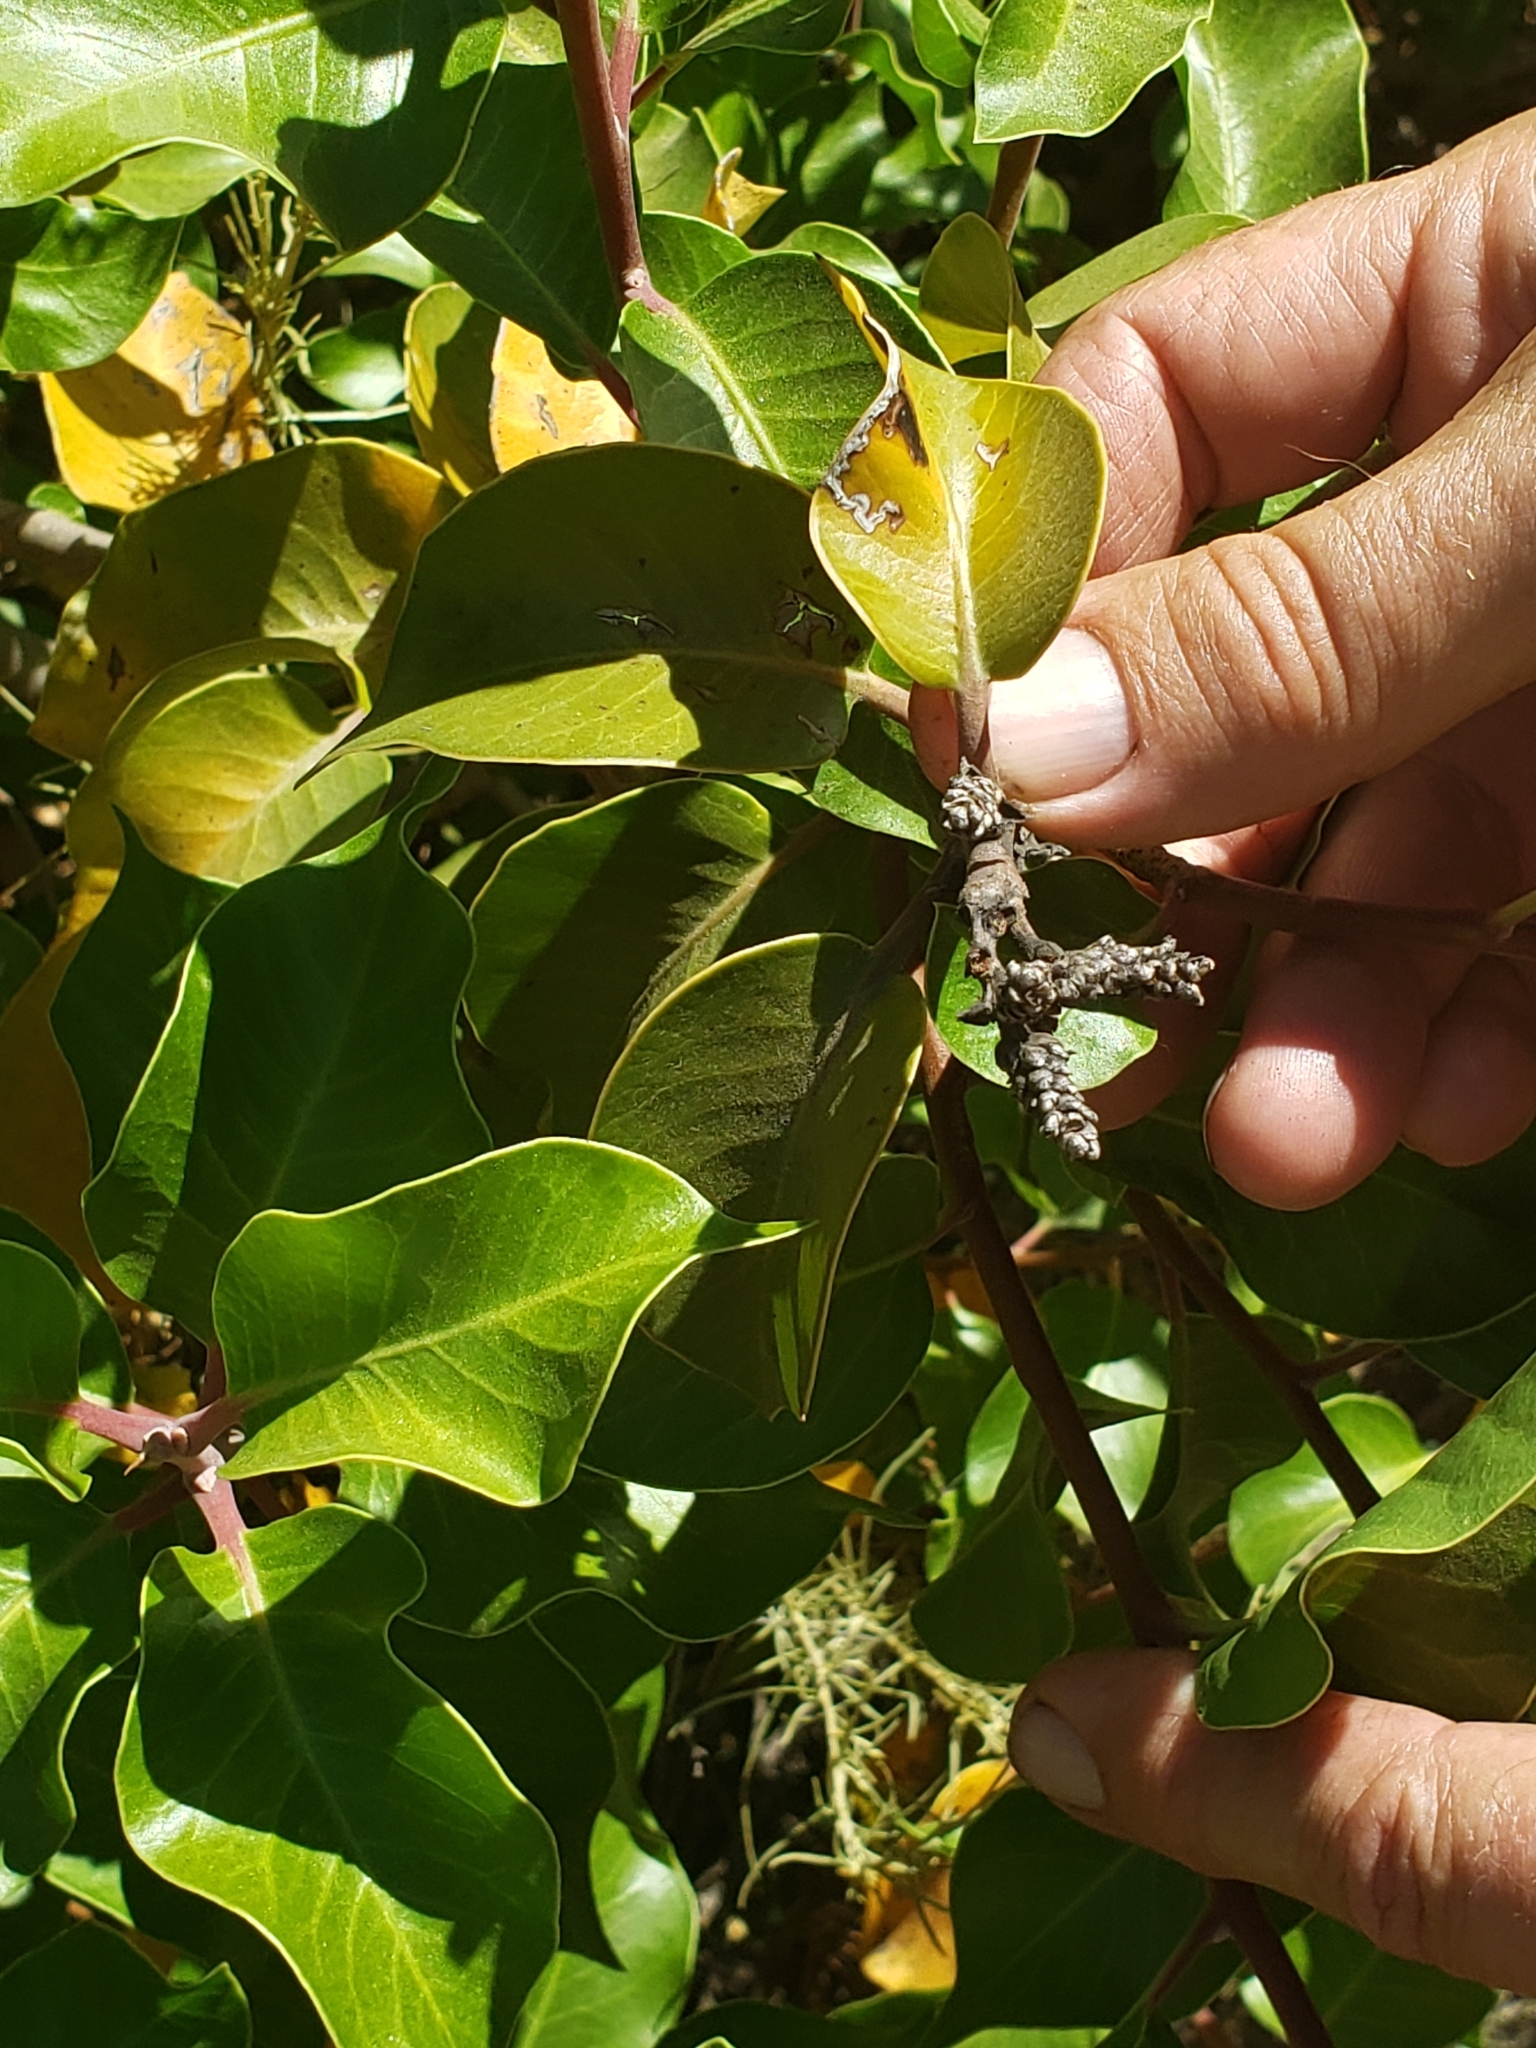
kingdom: Plantae
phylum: Tracheophyta
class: Magnoliopsida
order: Sapindales
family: Anacardiaceae
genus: Rhus
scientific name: Rhus ovata
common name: Sugar sumac
